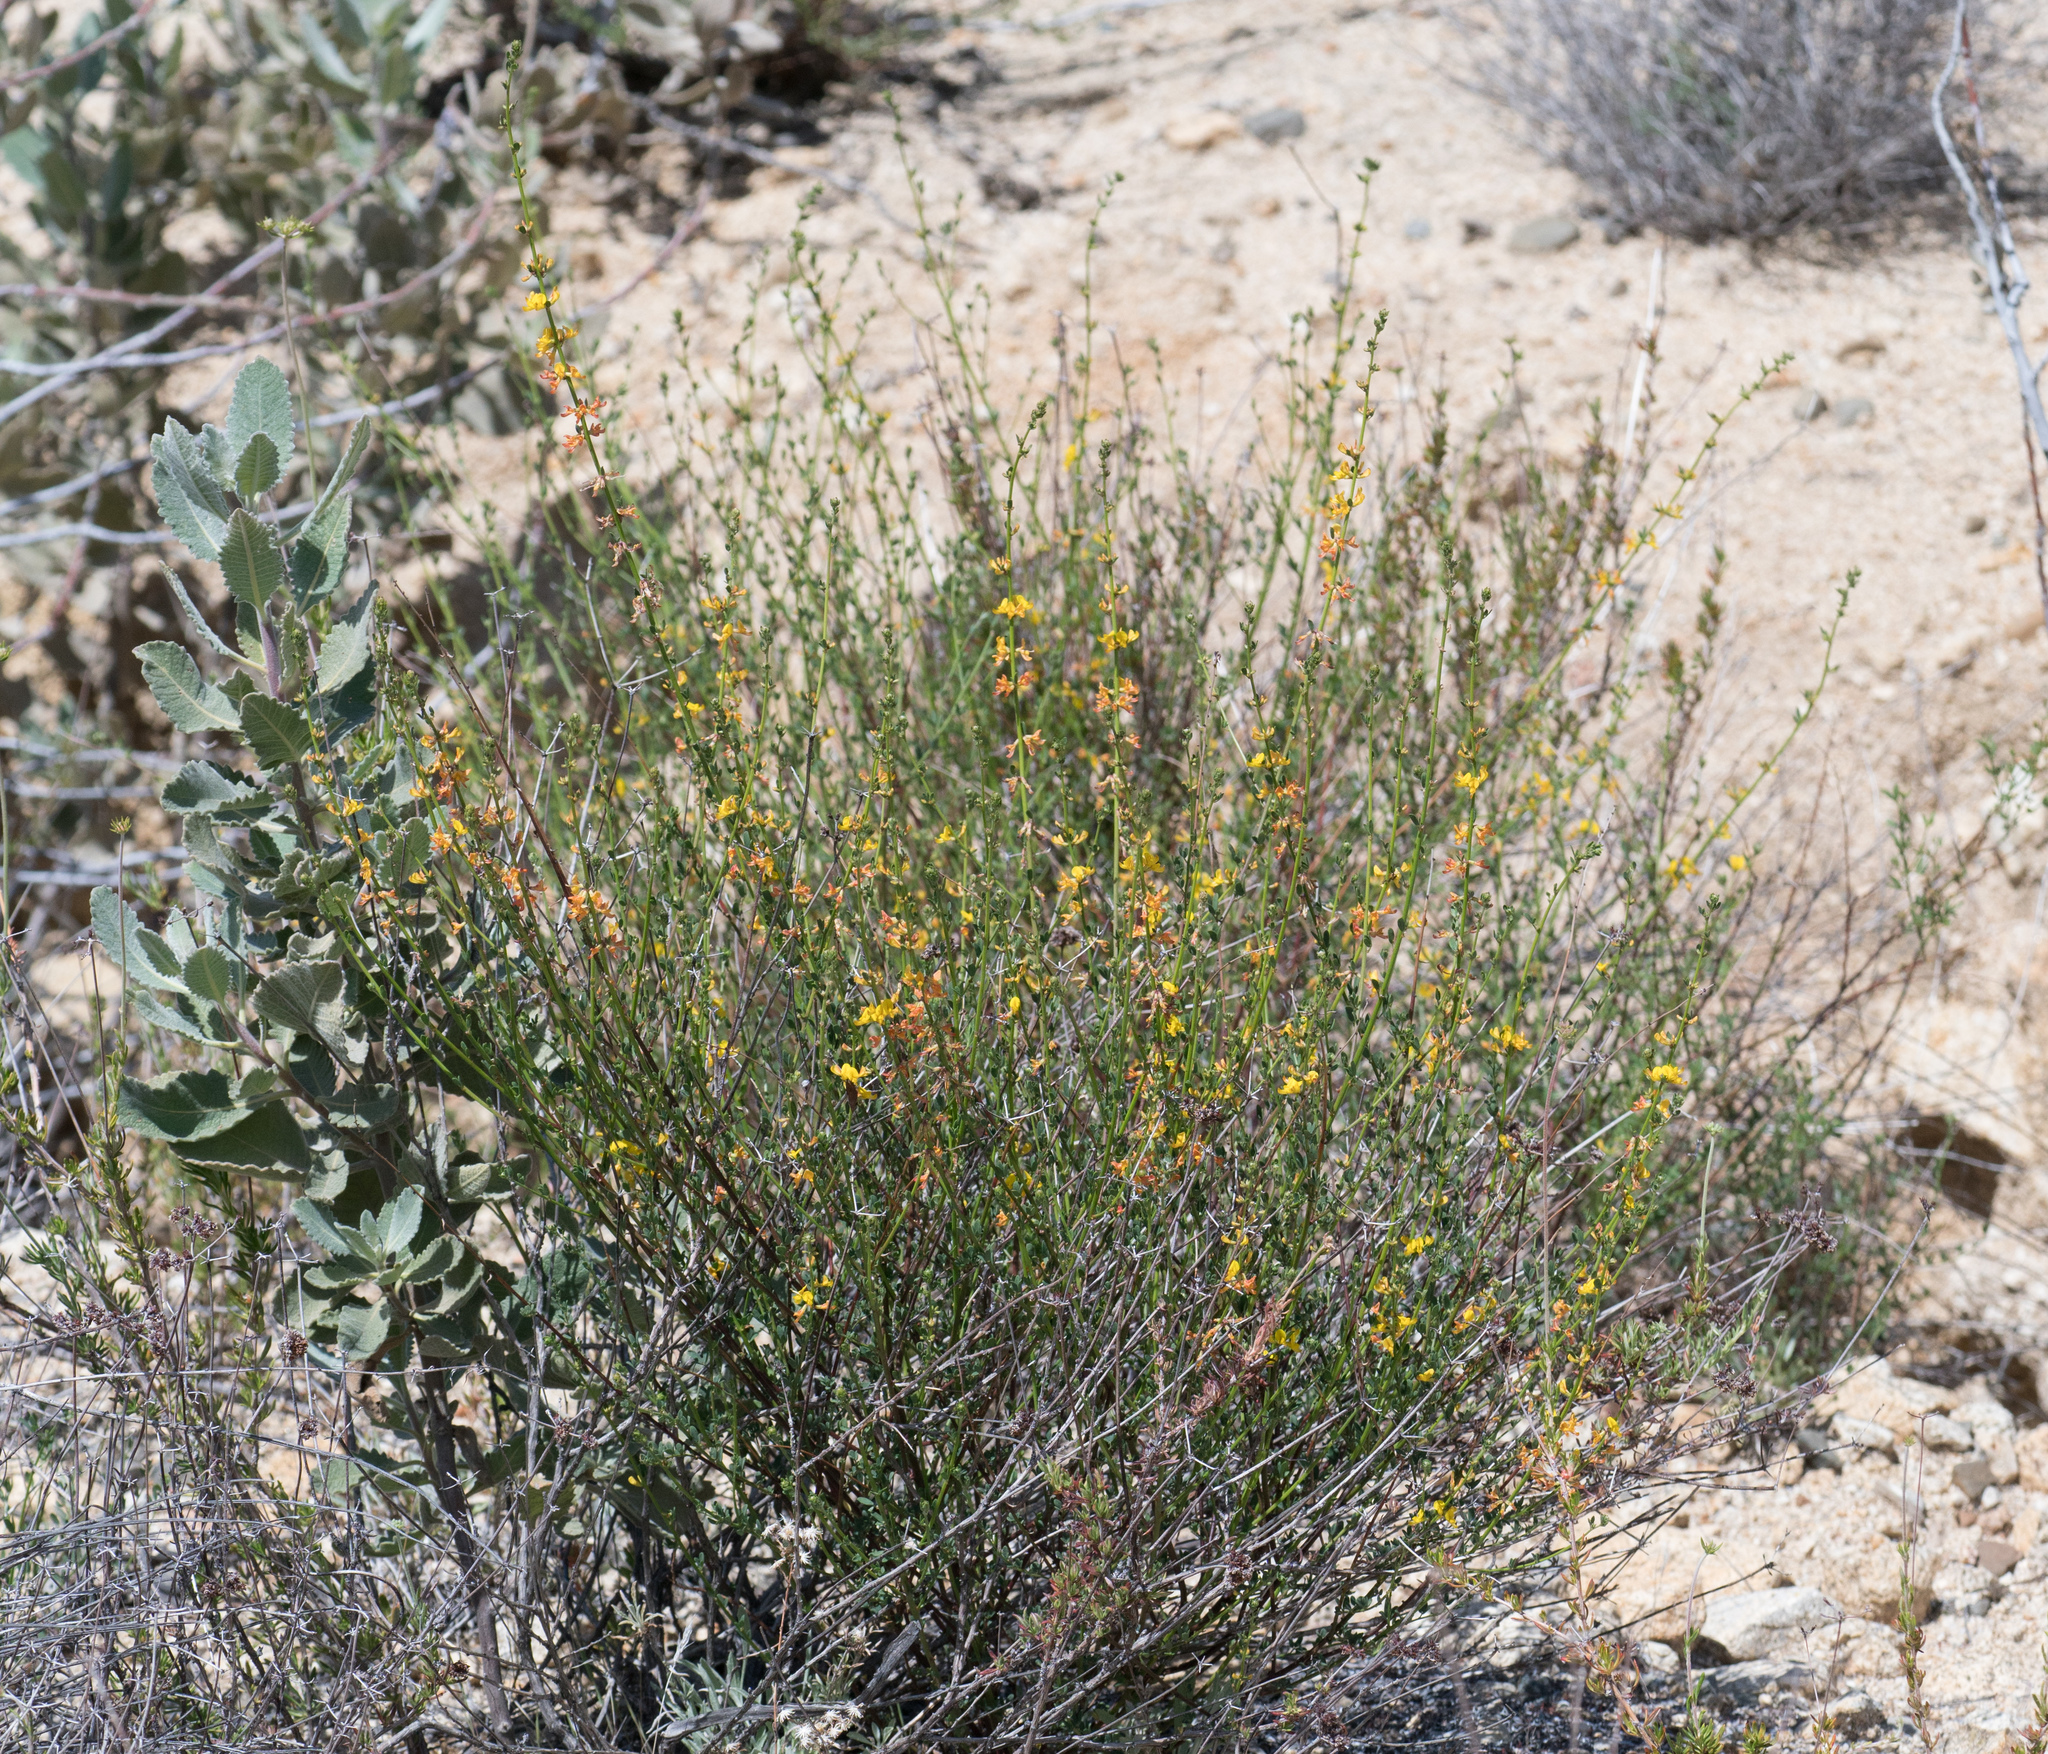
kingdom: Plantae
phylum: Tracheophyta
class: Magnoliopsida
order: Fabales
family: Fabaceae
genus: Acmispon
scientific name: Acmispon glaber
